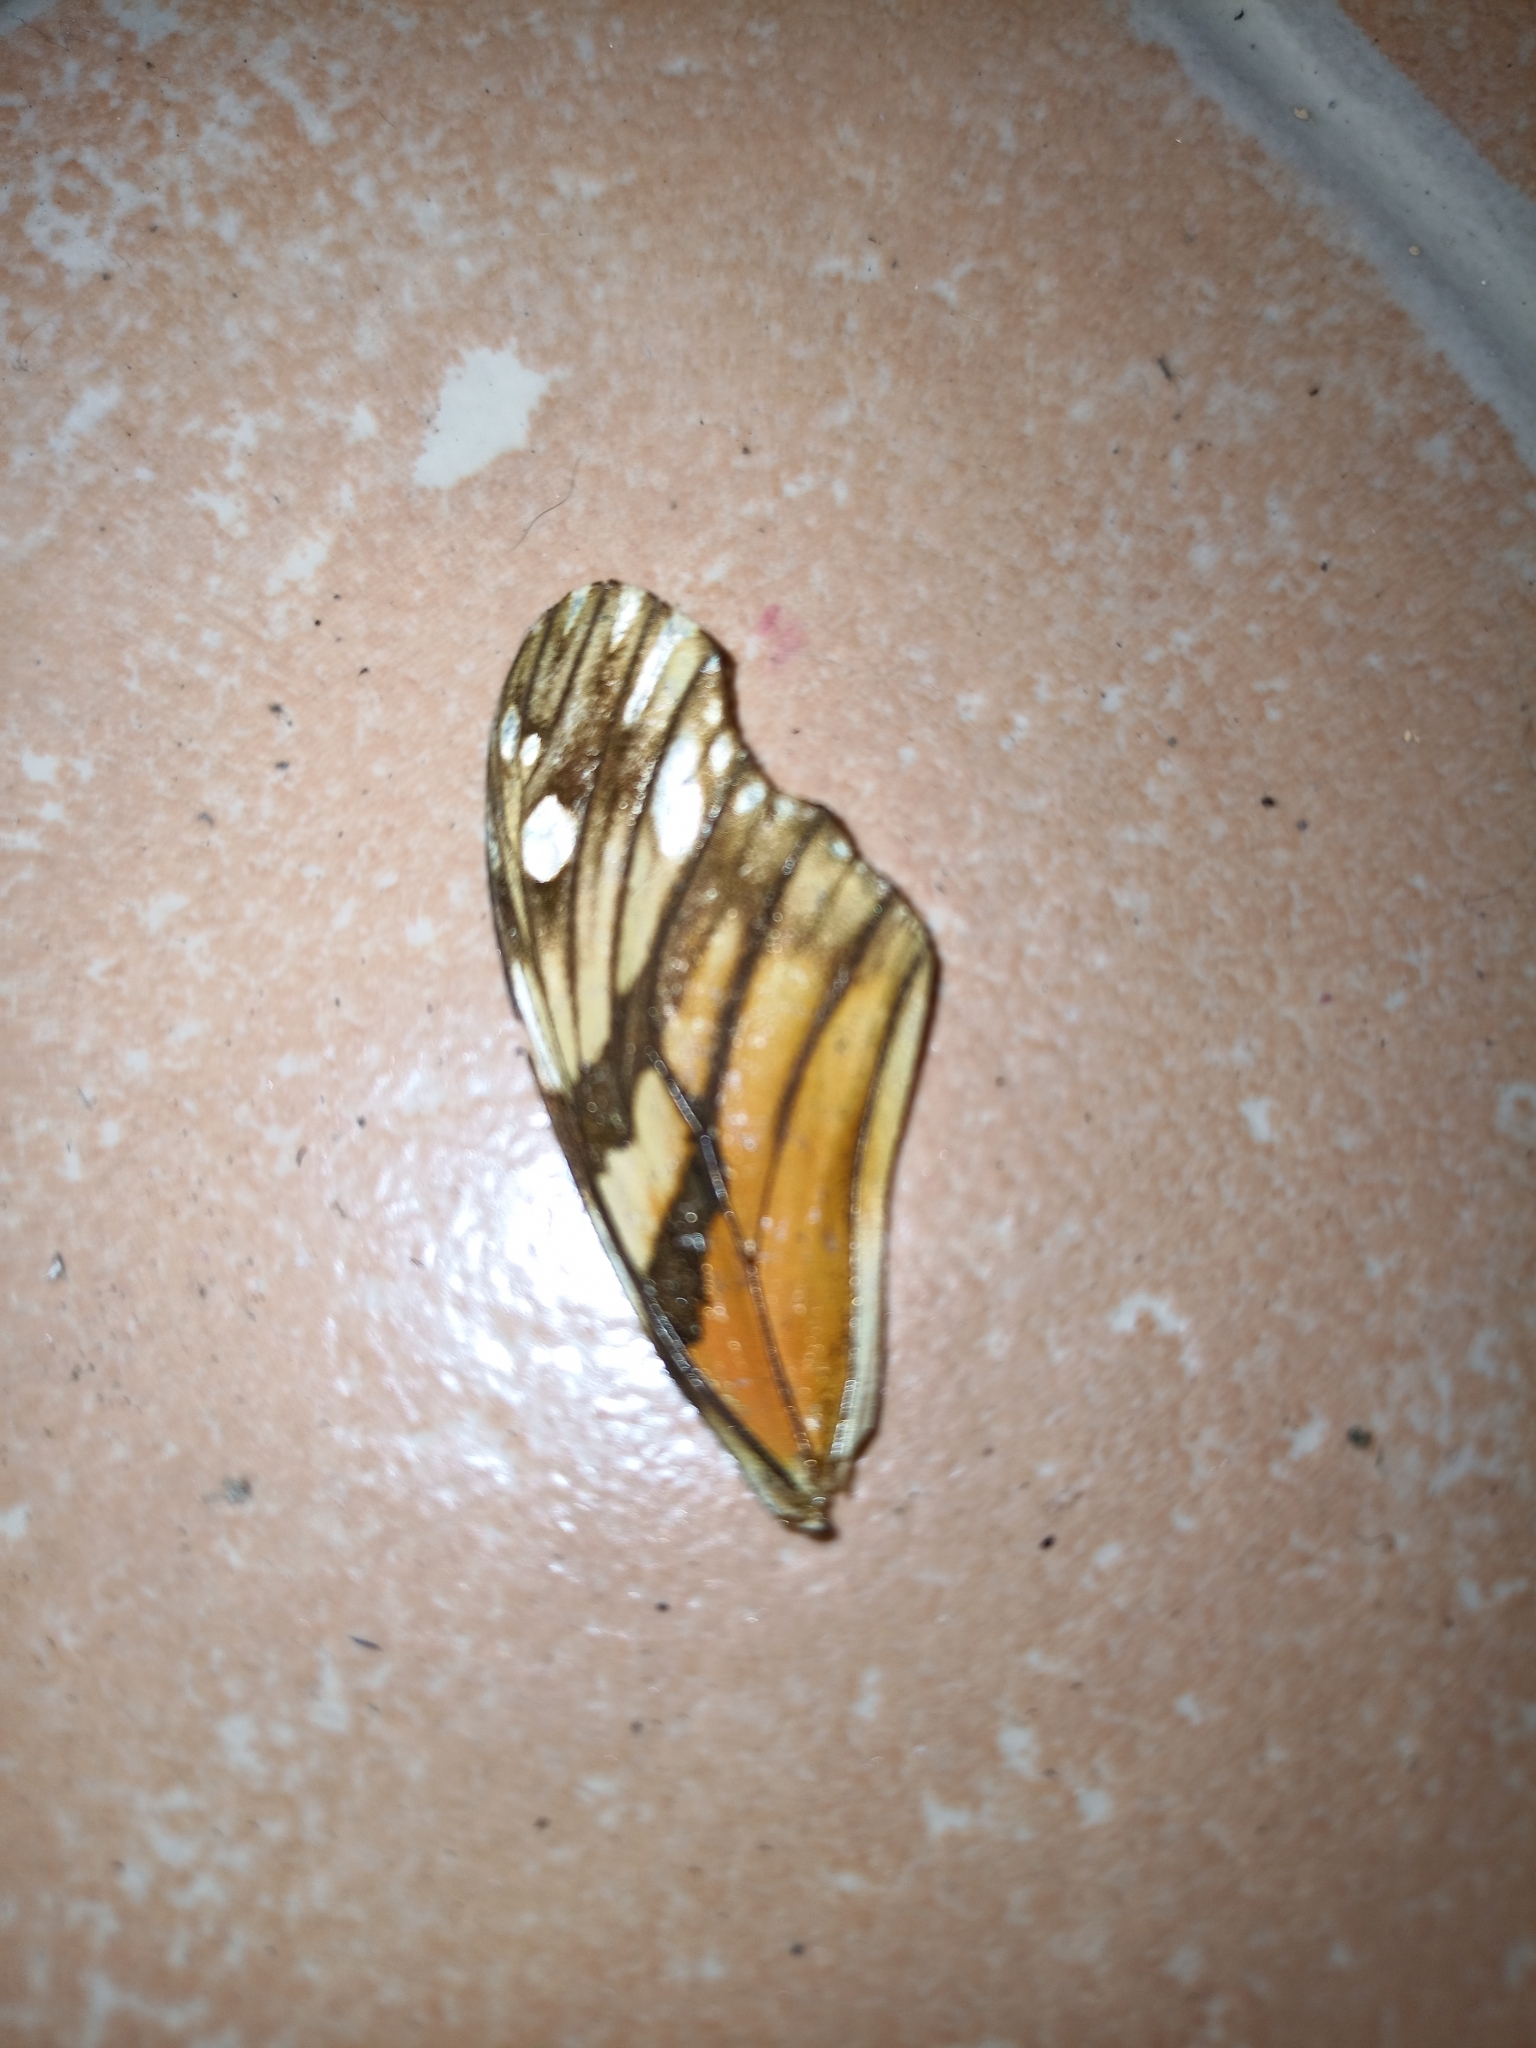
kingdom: Animalia
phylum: Arthropoda
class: Insecta
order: Lepidoptera
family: Nymphalidae
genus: Dione
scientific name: Dione juno
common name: Juno silverspot
